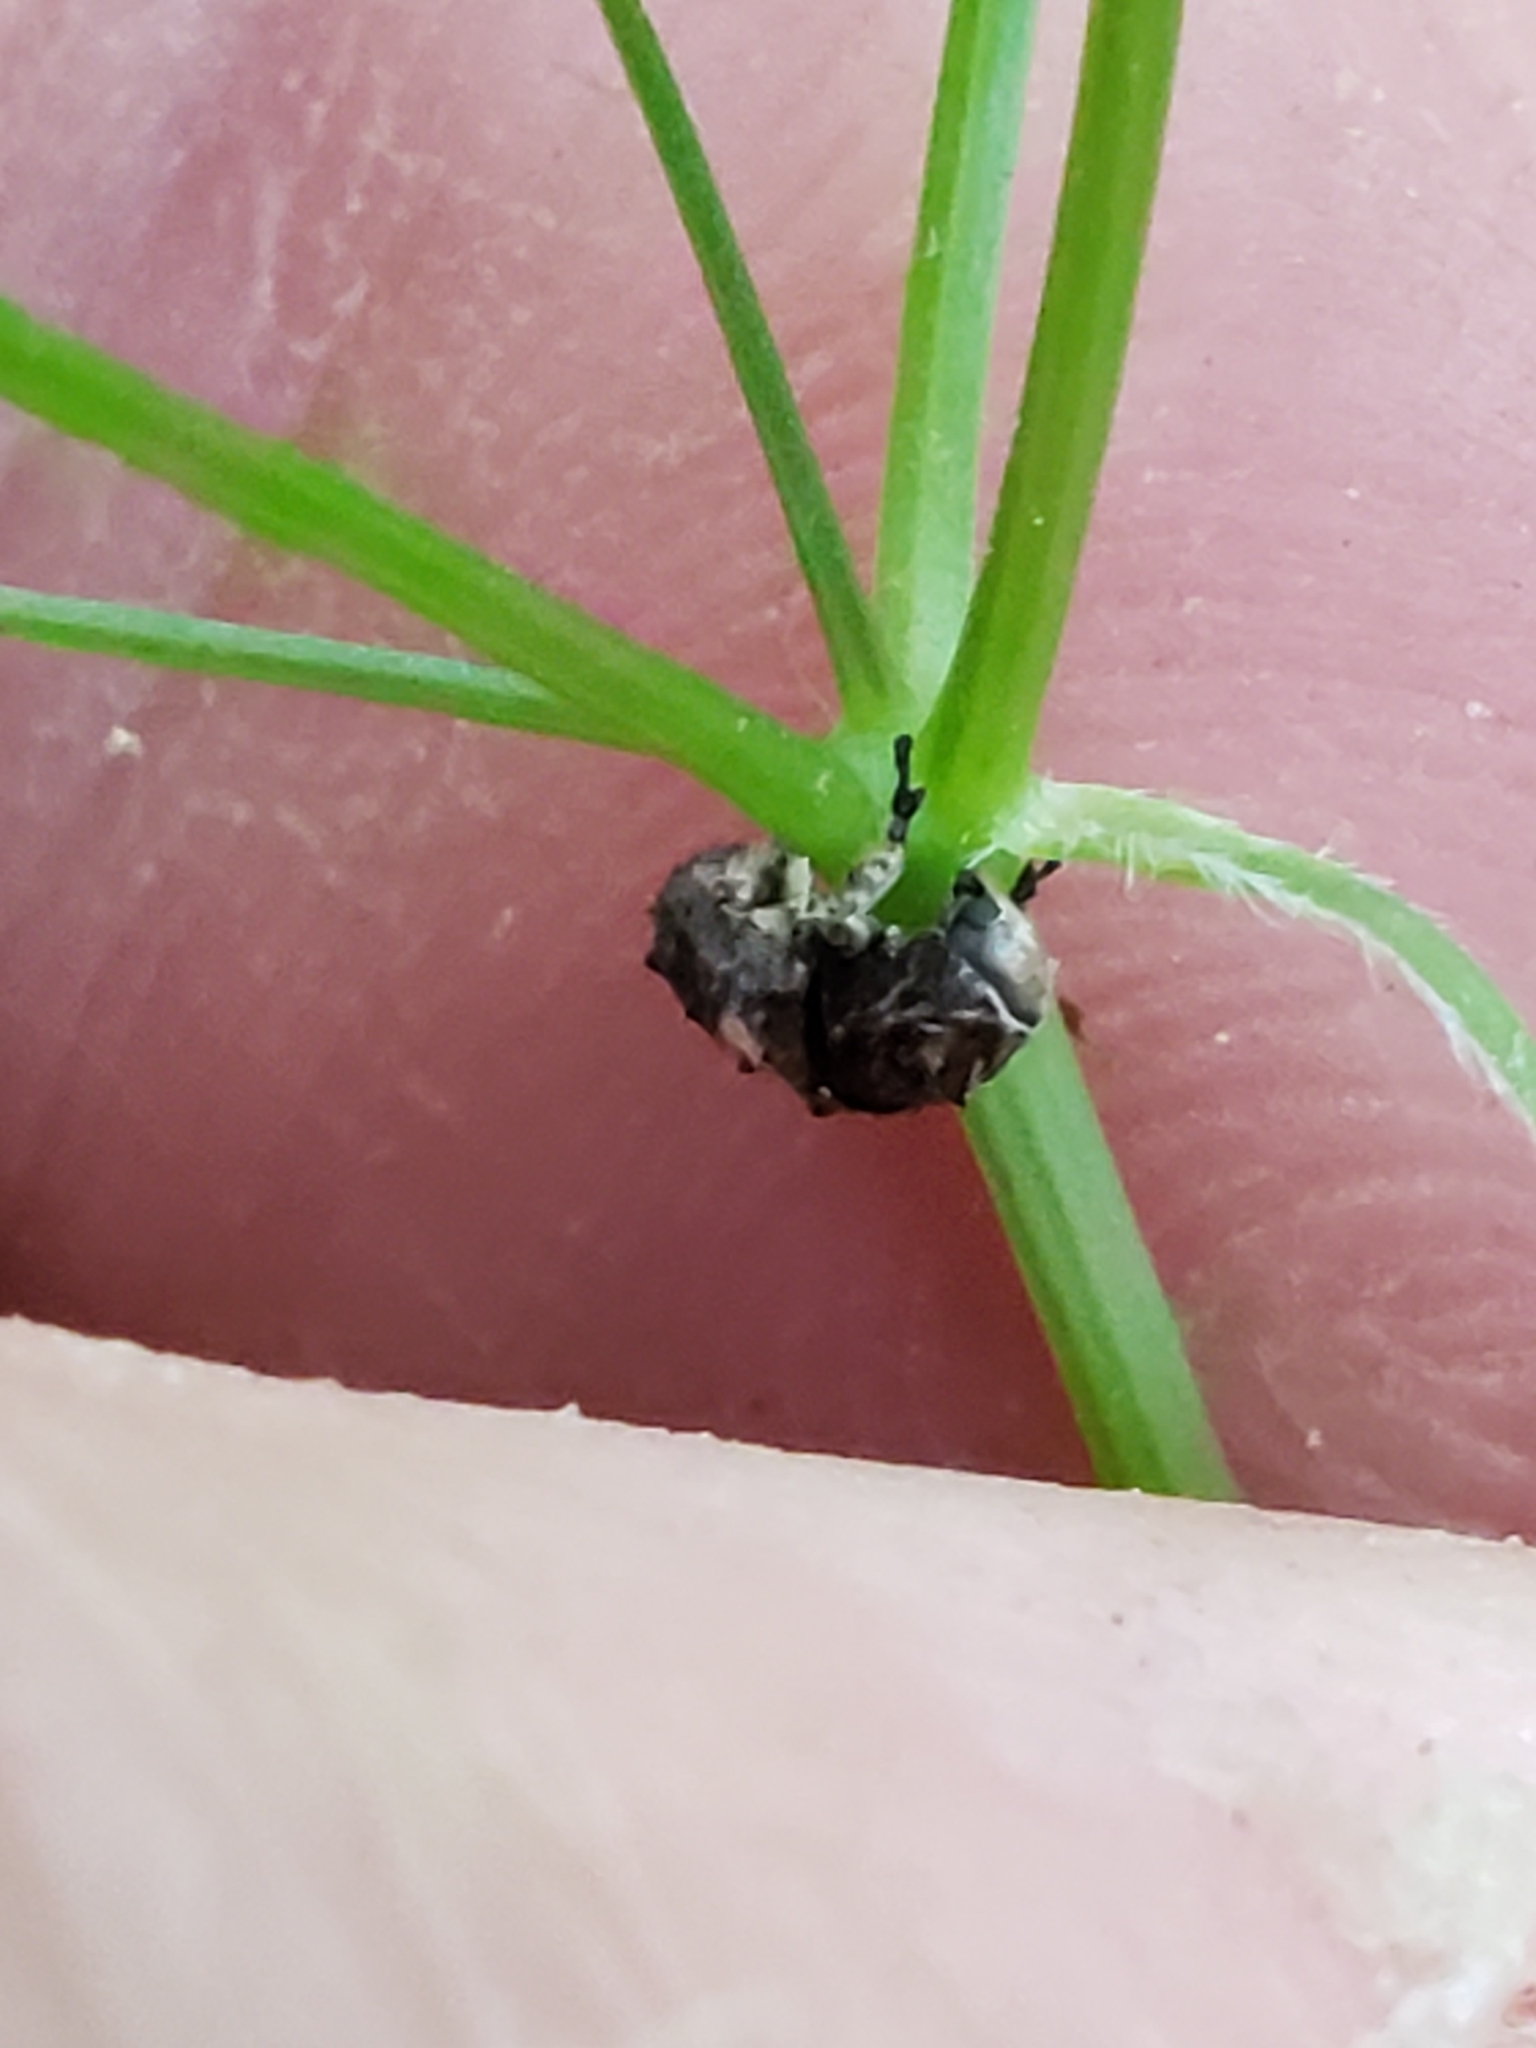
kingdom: Animalia
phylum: Arthropoda
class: Insecta
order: Coleoptera
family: Anthribidae
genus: Toxonotus
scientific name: Toxonotus cornutus
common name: Fungus weevil
